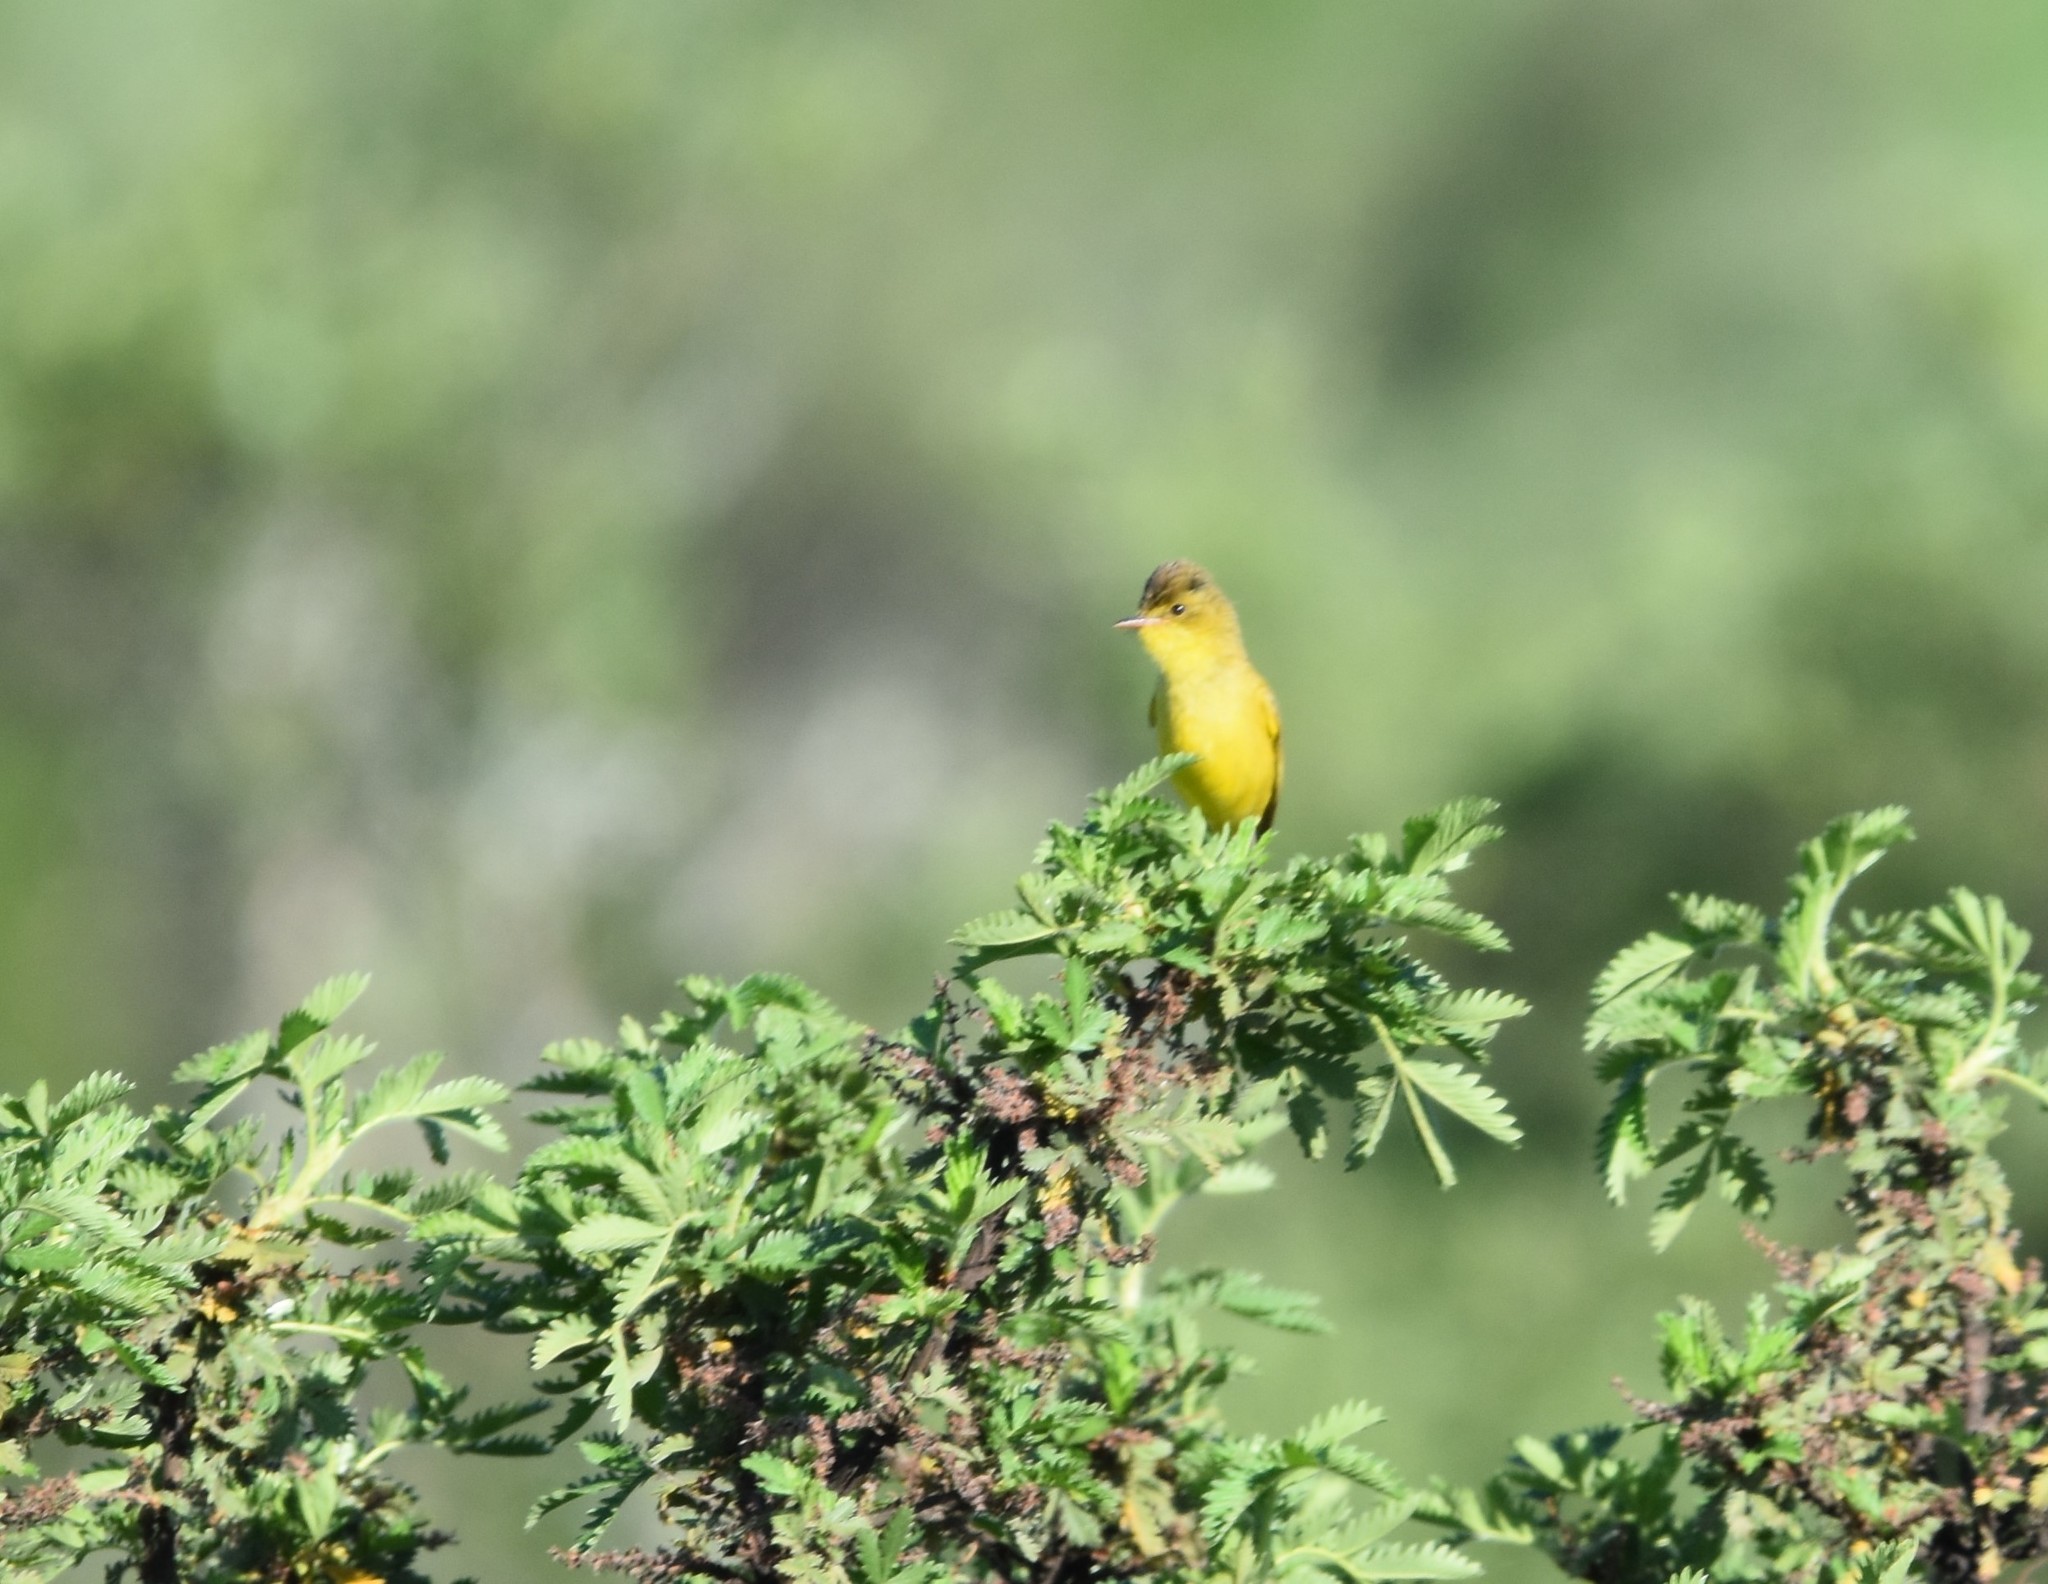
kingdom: Animalia
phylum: Chordata
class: Aves
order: Passeriformes
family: Acrocephalidae
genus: Iduna
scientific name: Iduna natalensis
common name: African yellow warbler
